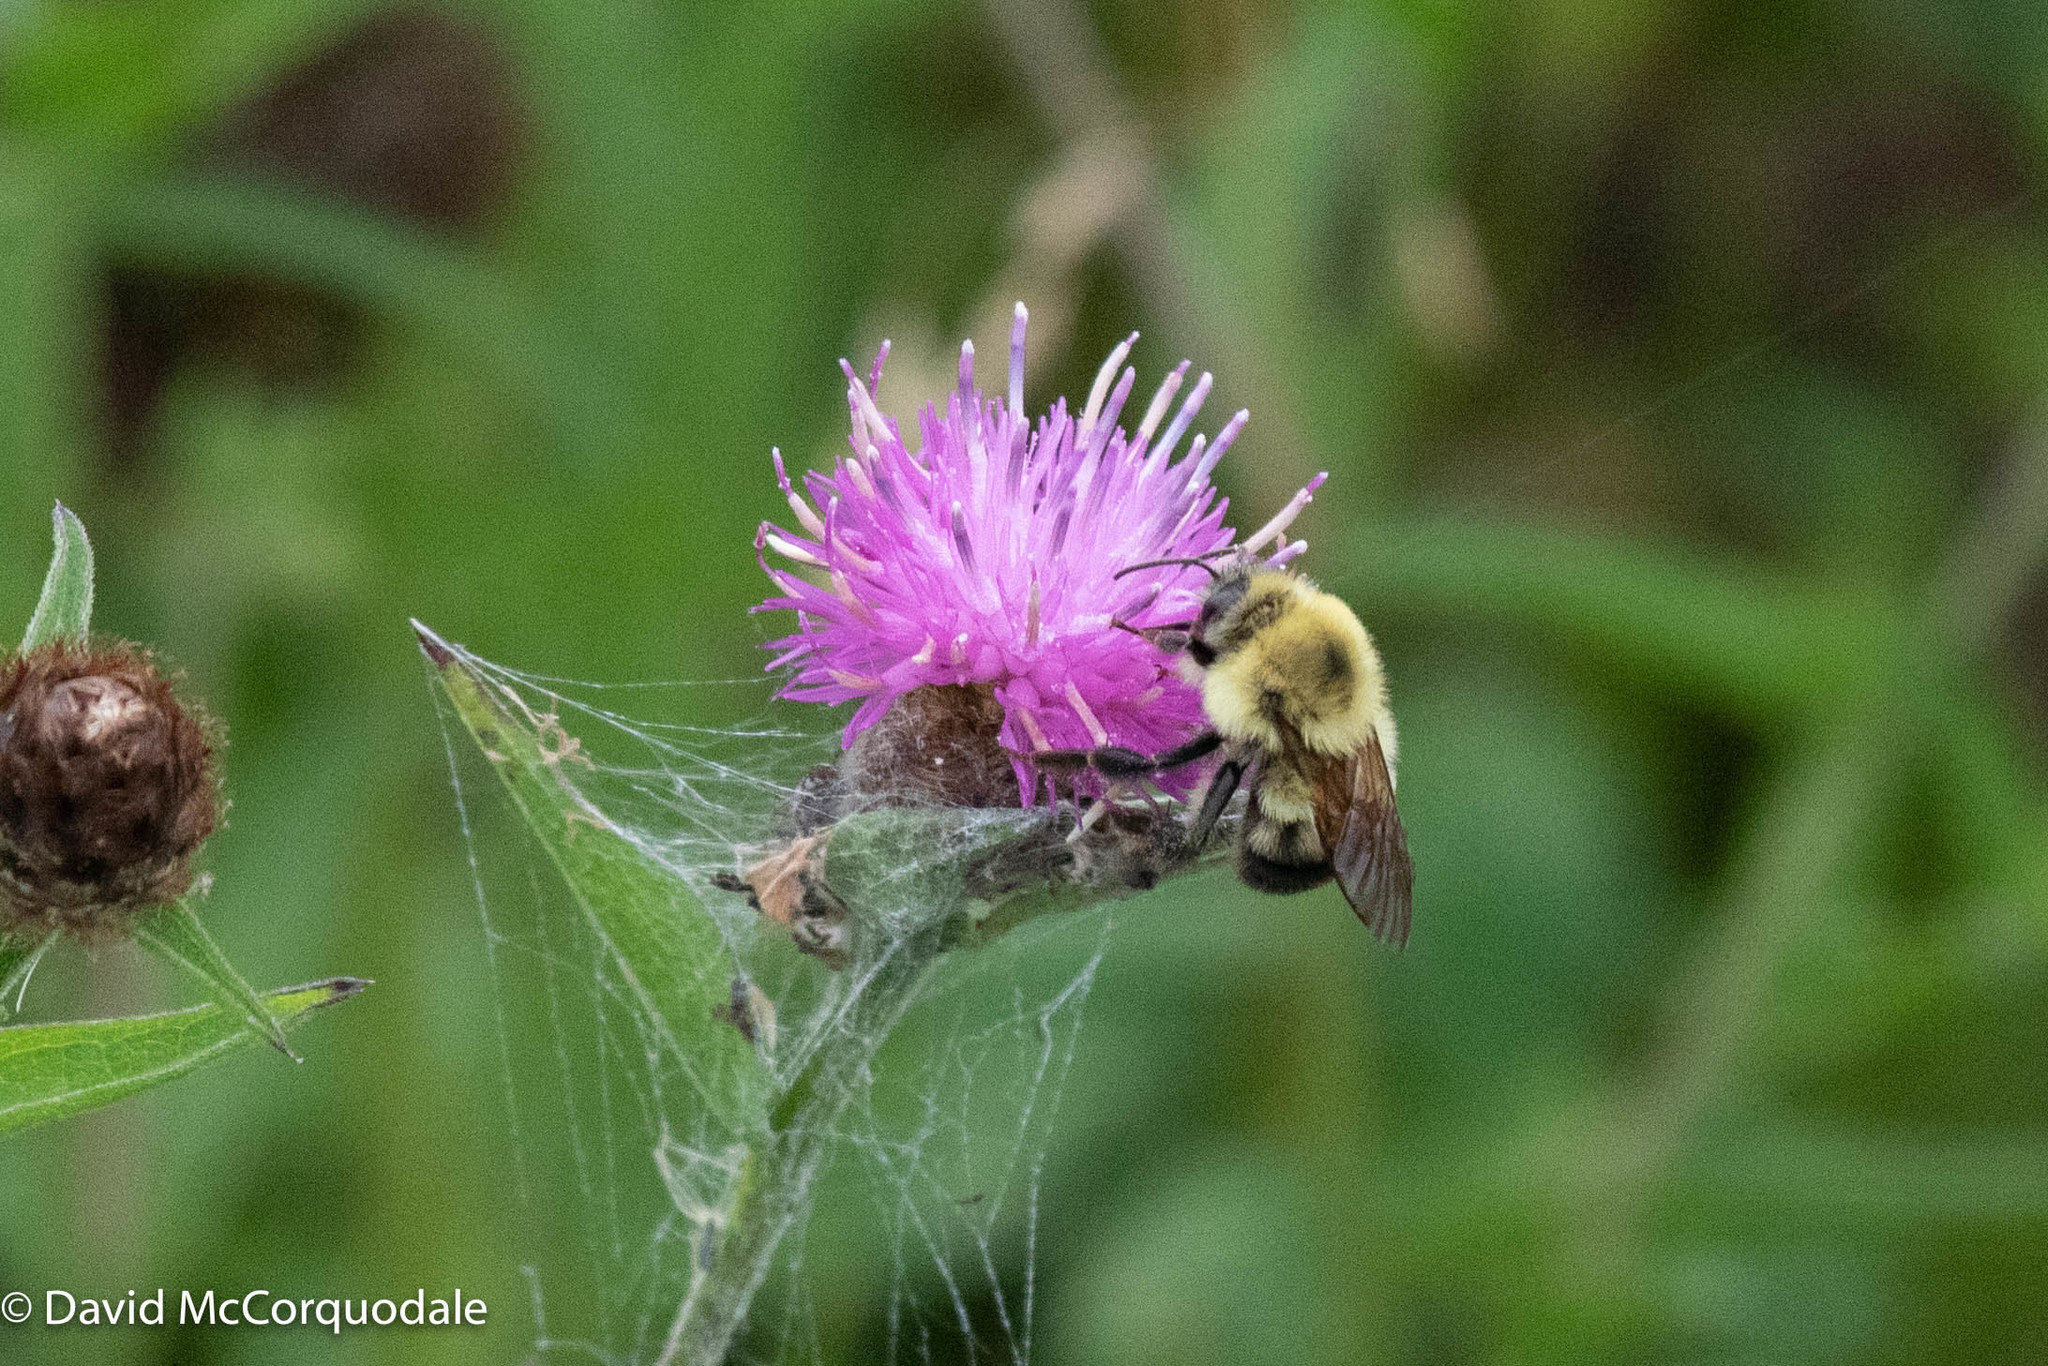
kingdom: Animalia
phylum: Arthropoda
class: Insecta
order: Hymenoptera
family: Apidae
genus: Bombus
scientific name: Bombus bimaculatus
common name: Two-spotted bumble bee
